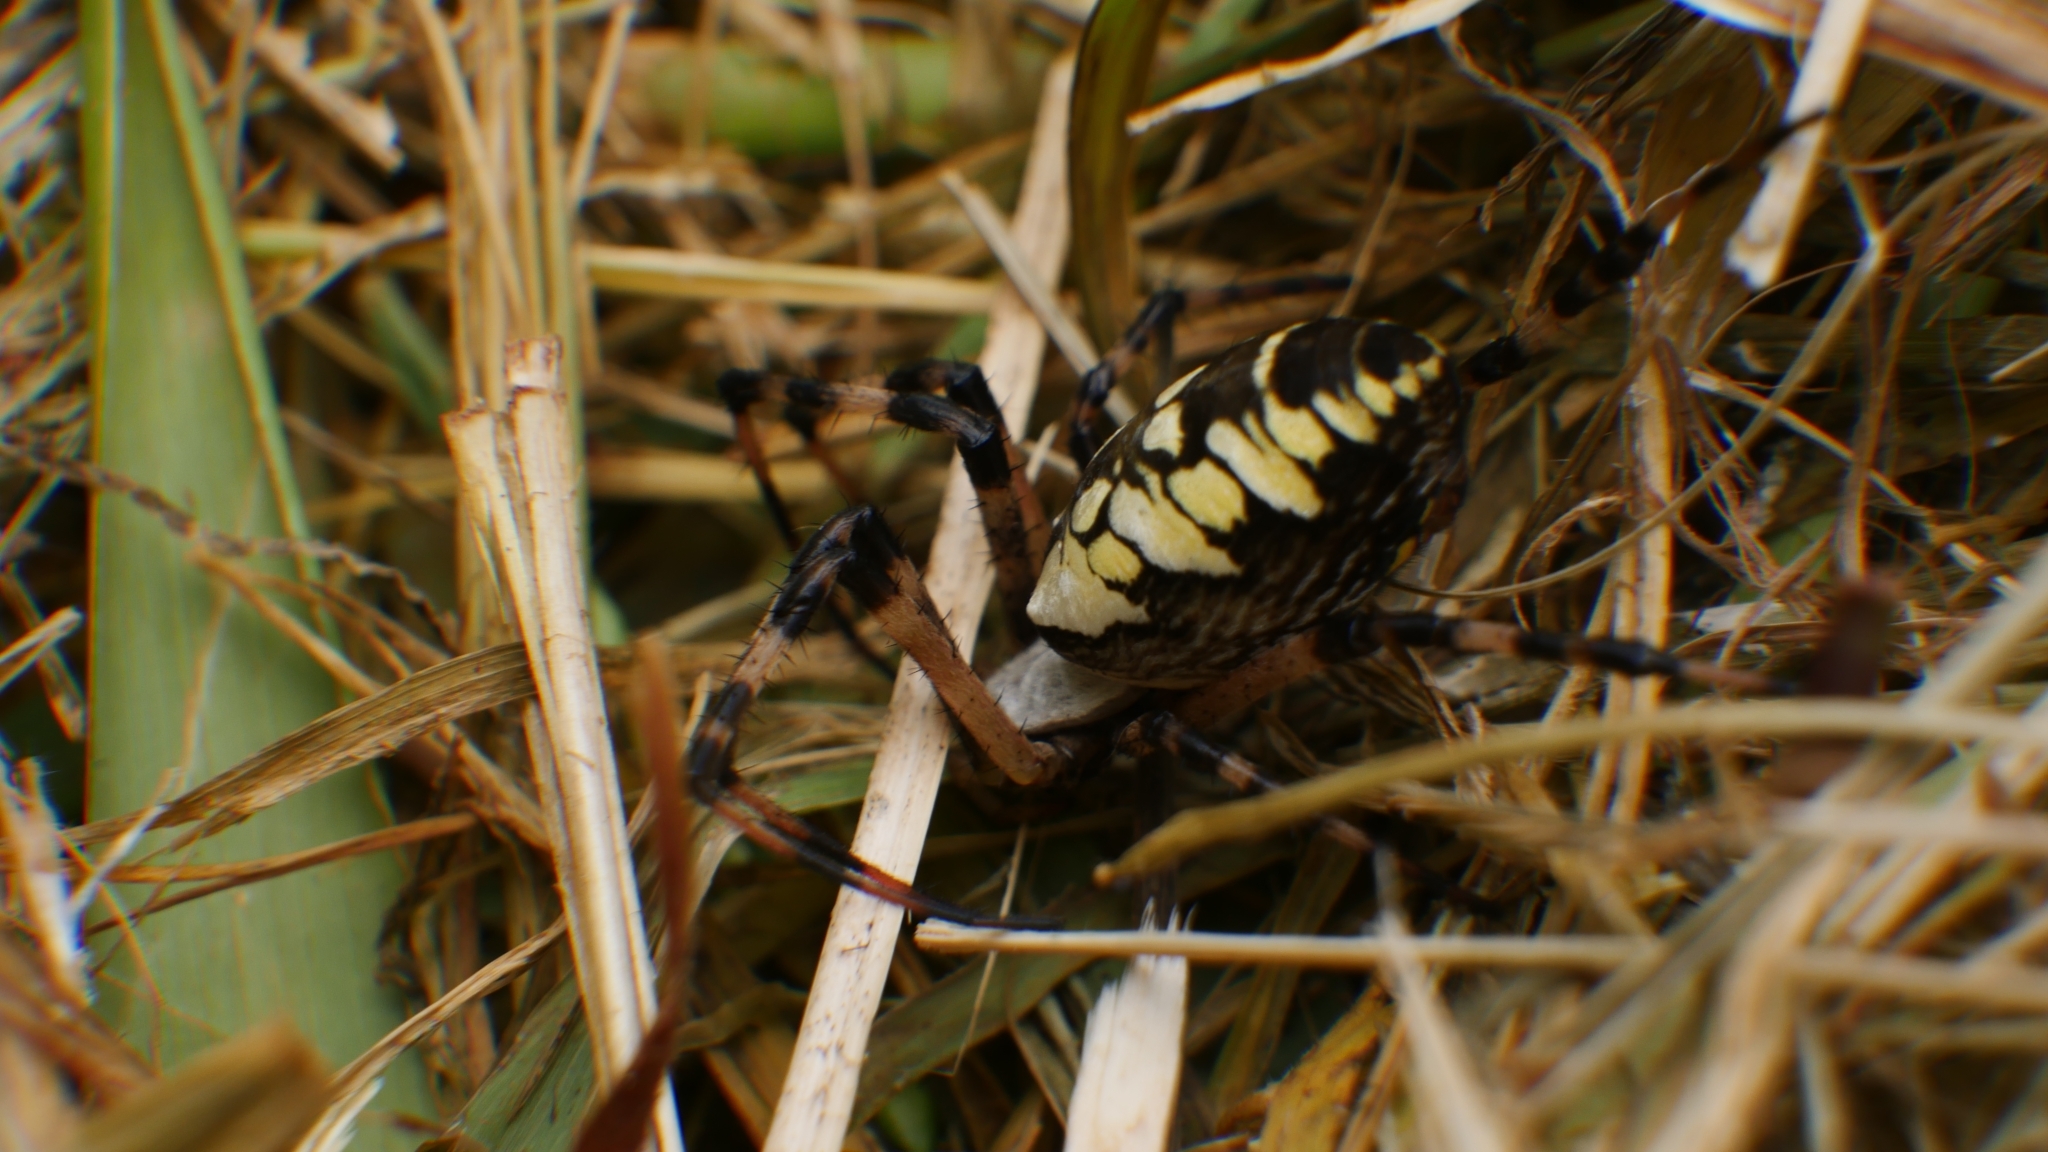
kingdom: Animalia
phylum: Arthropoda
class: Arachnida
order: Araneae
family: Araneidae
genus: Argiope
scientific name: Argiope aurantia
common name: Orb weavers
